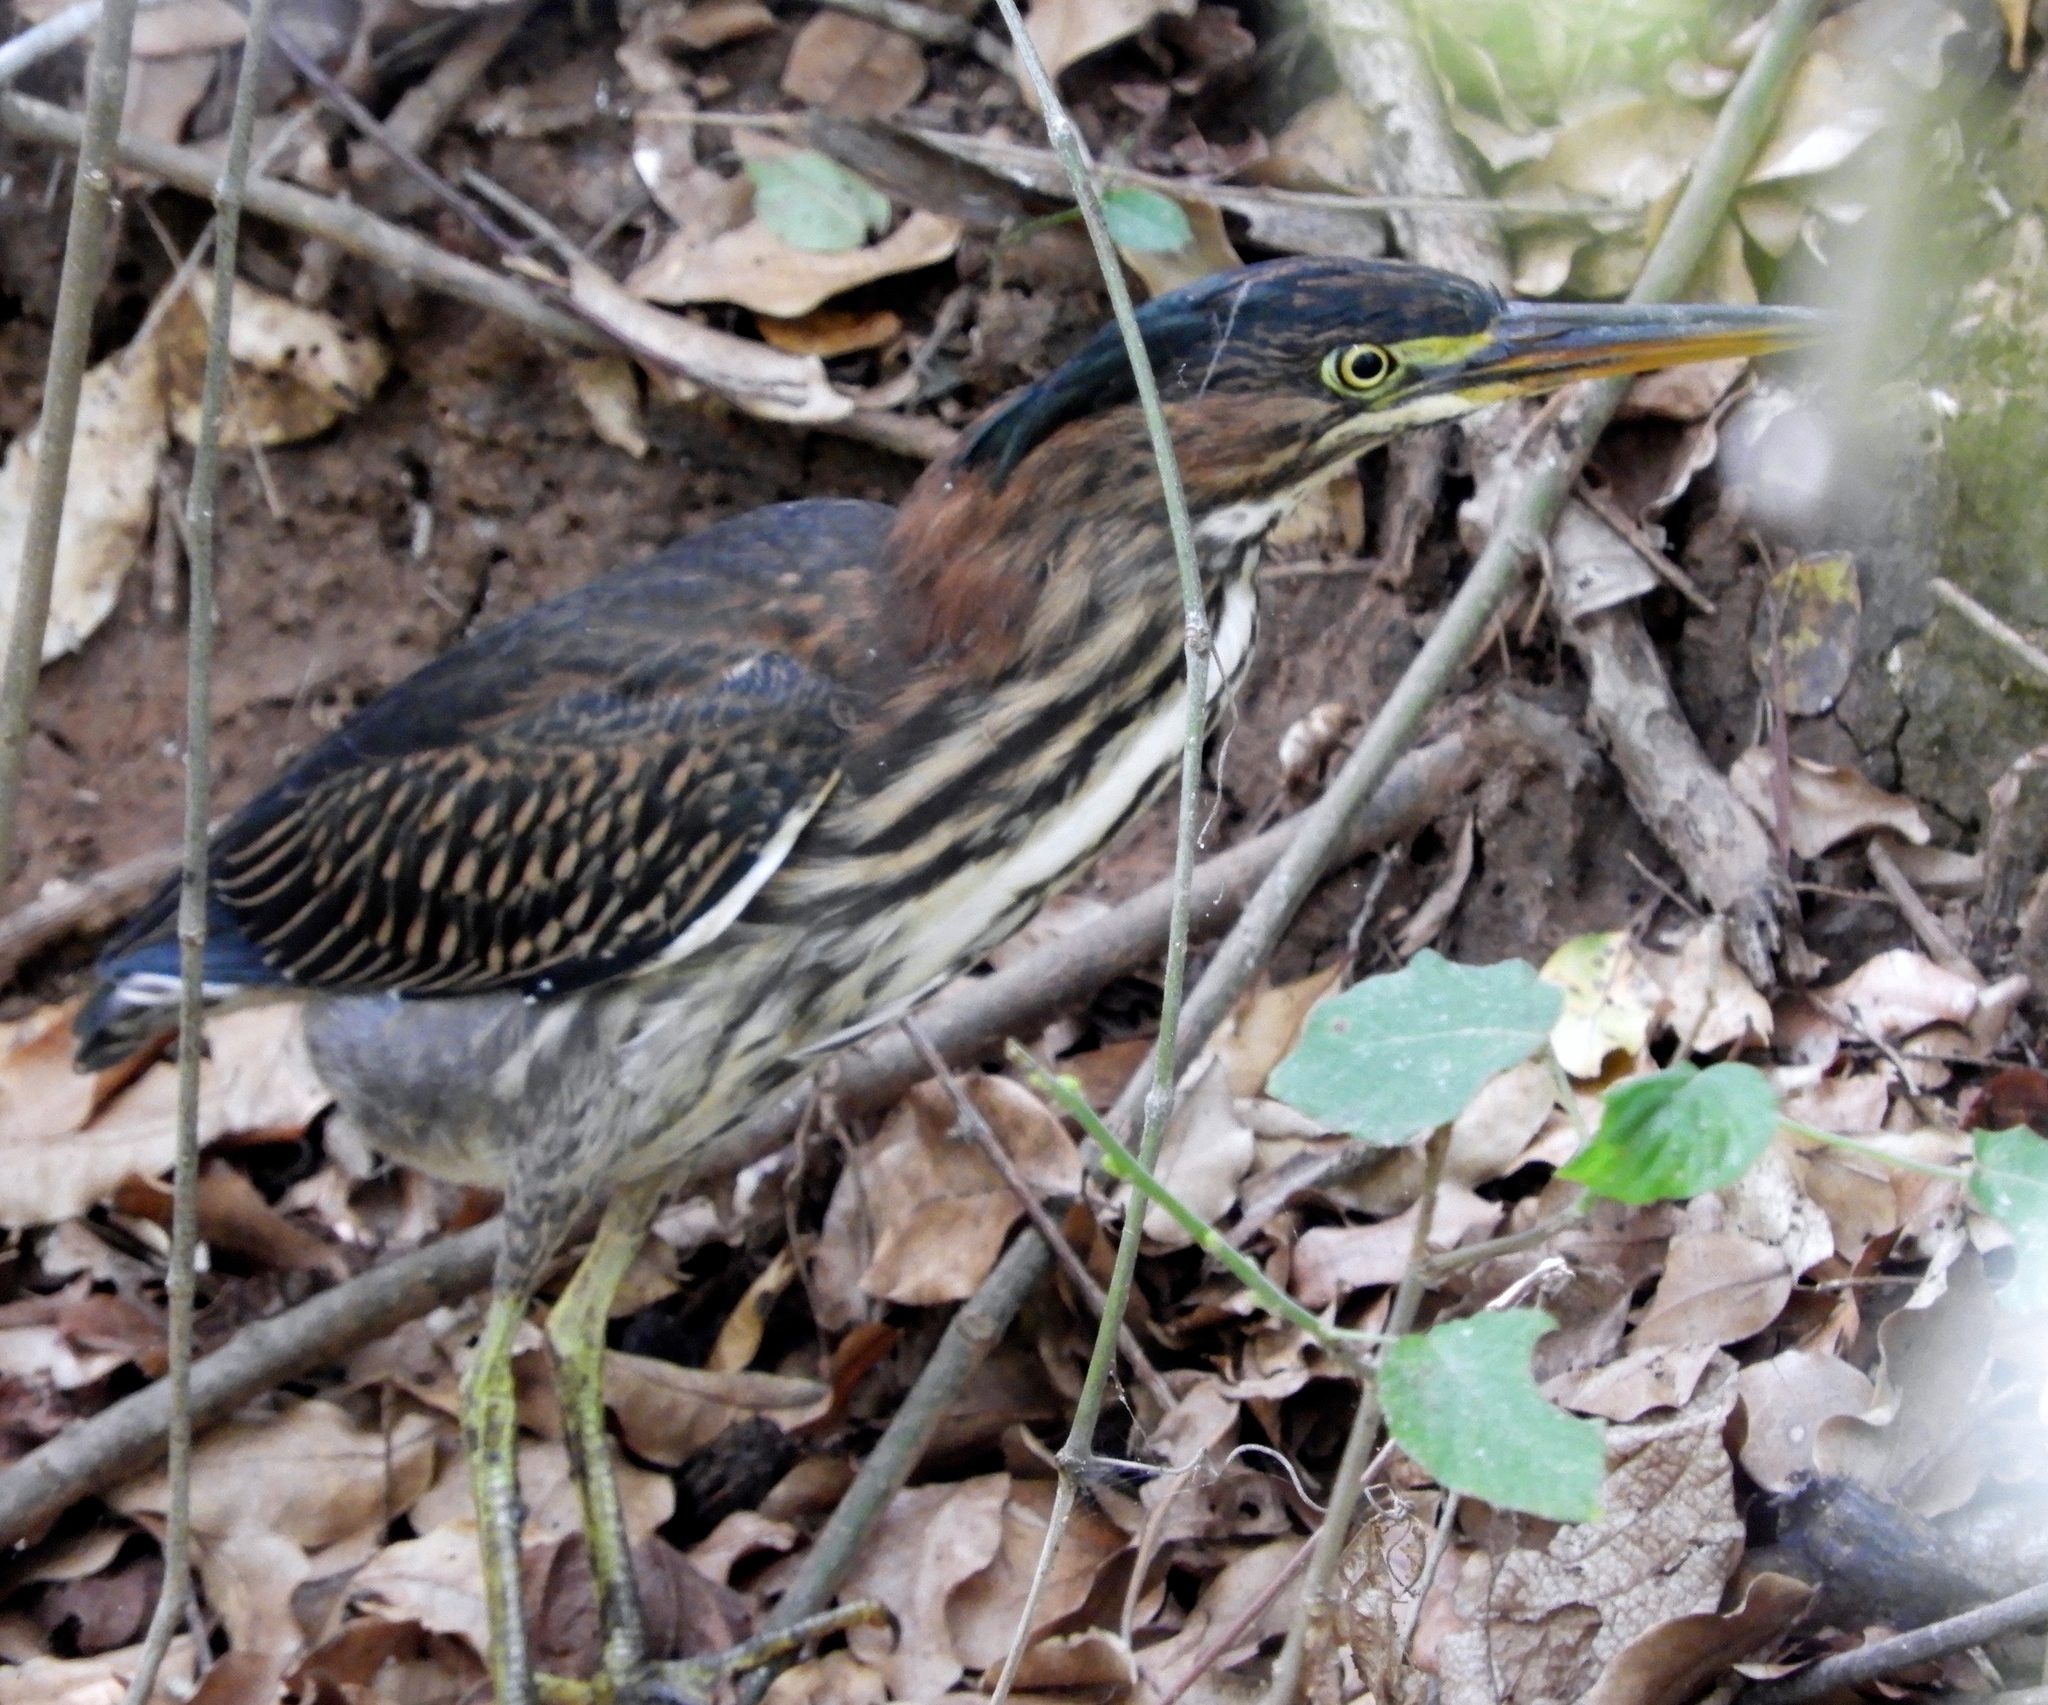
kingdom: Animalia
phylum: Chordata
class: Aves
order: Pelecaniformes
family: Ardeidae
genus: Butorides
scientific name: Butorides virescens
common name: Green heron
